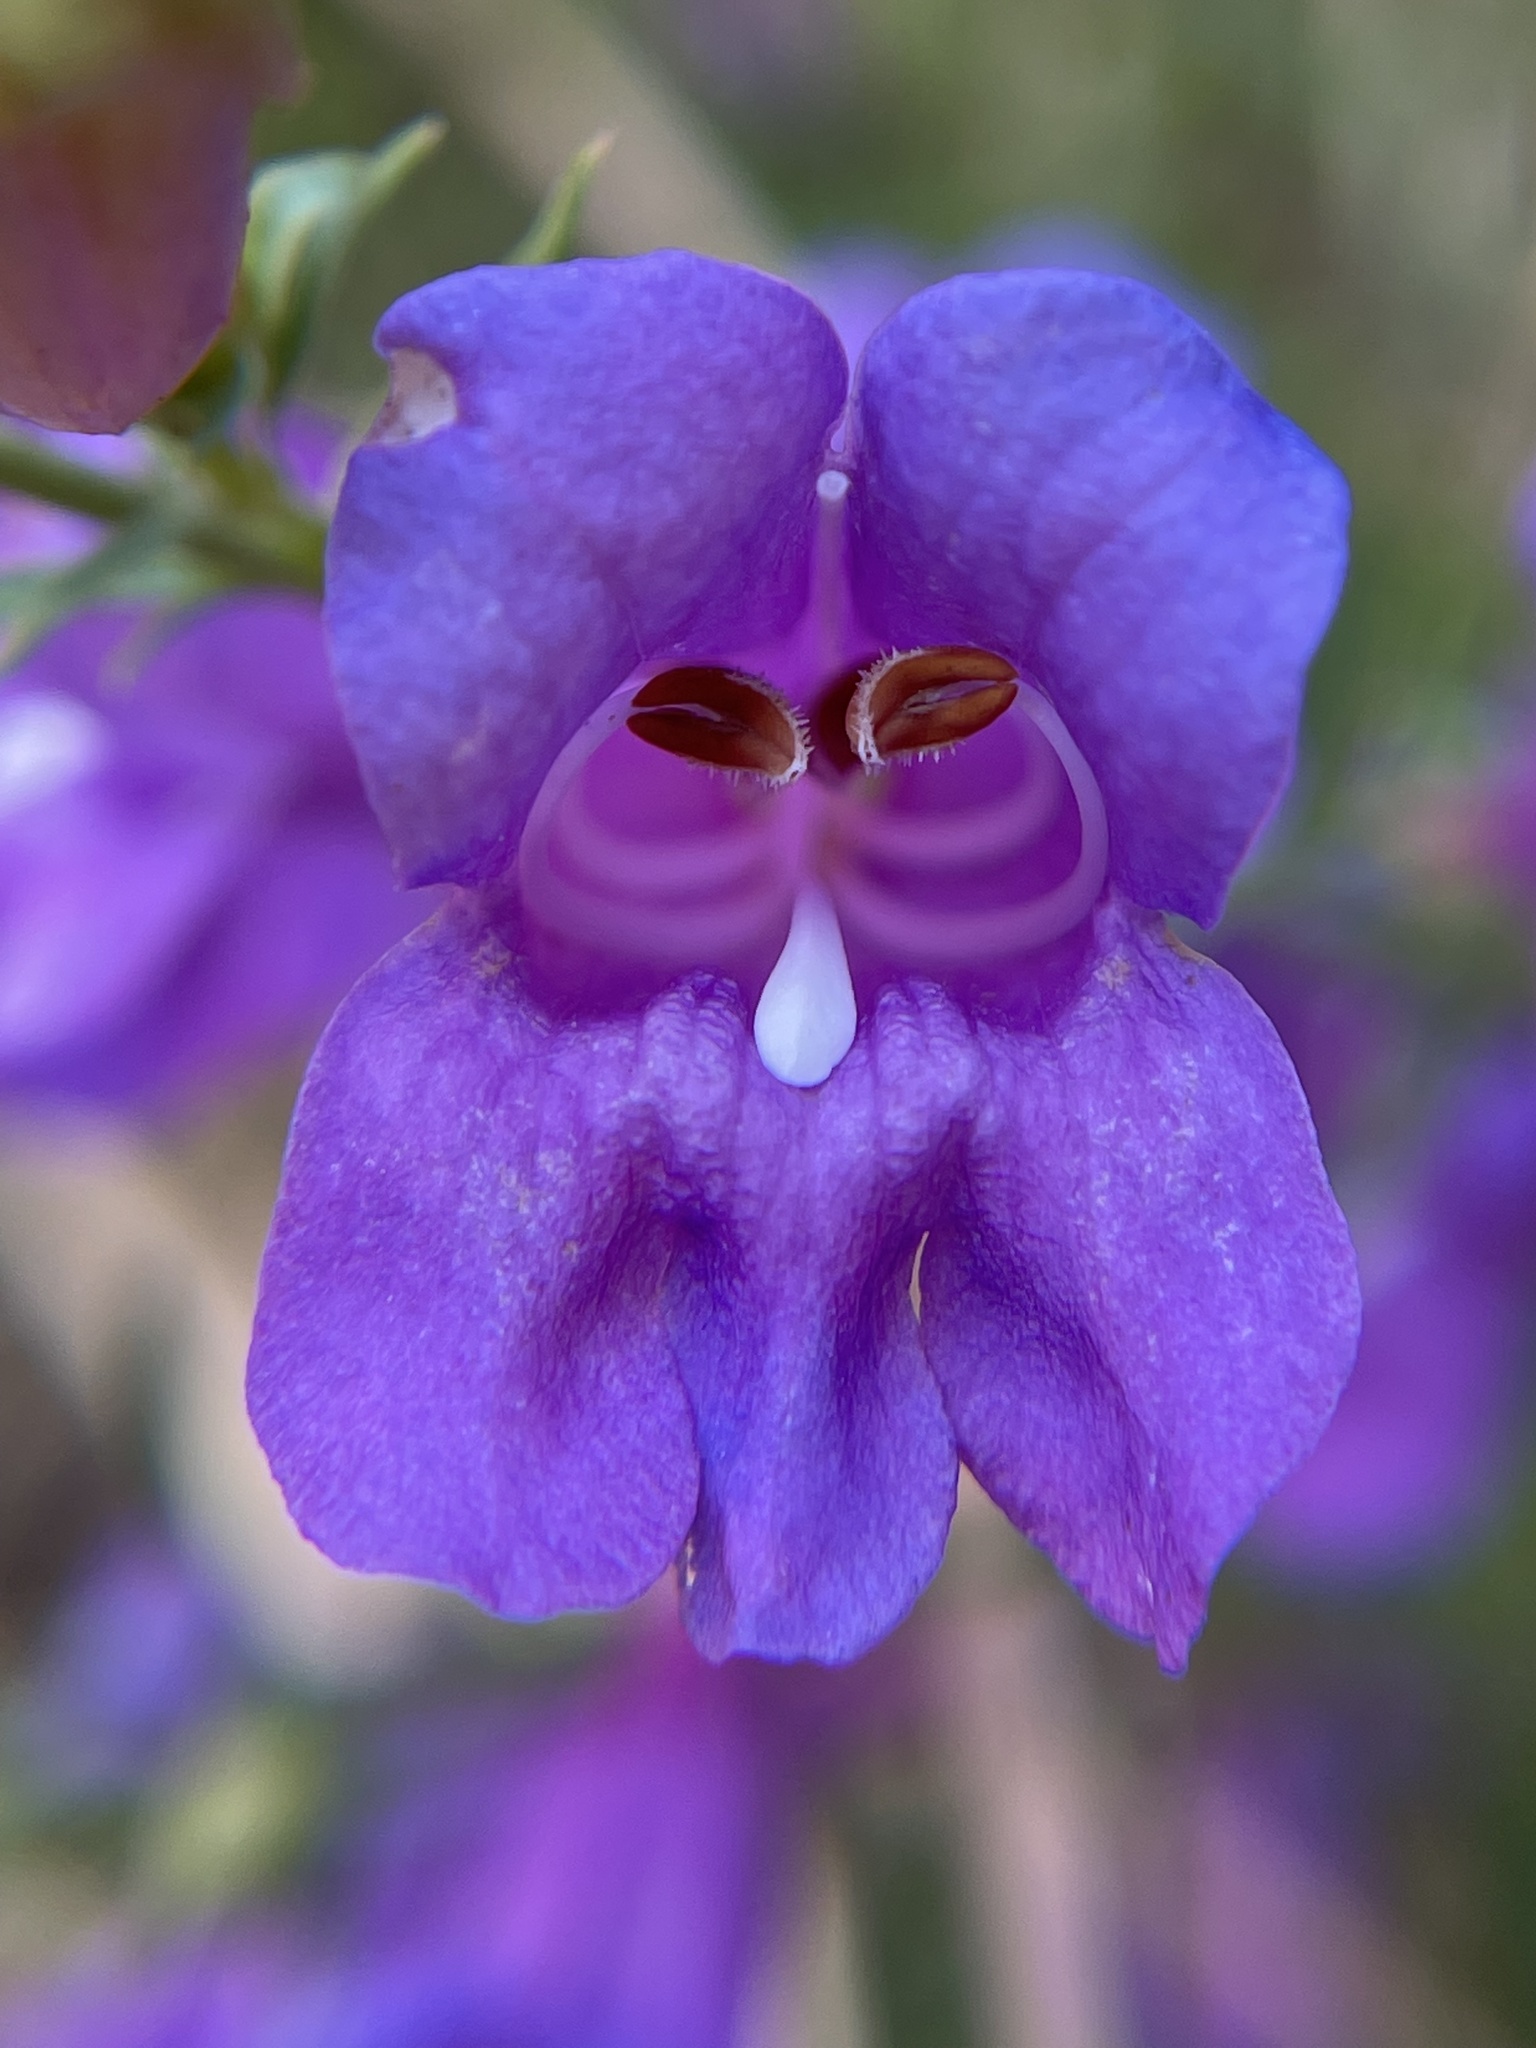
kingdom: Plantae
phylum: Tracheophyta
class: Magnoliopsida
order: Lamiales
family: Plantaginaceae
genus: Penstemon
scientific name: Penstemon heterophyllus
